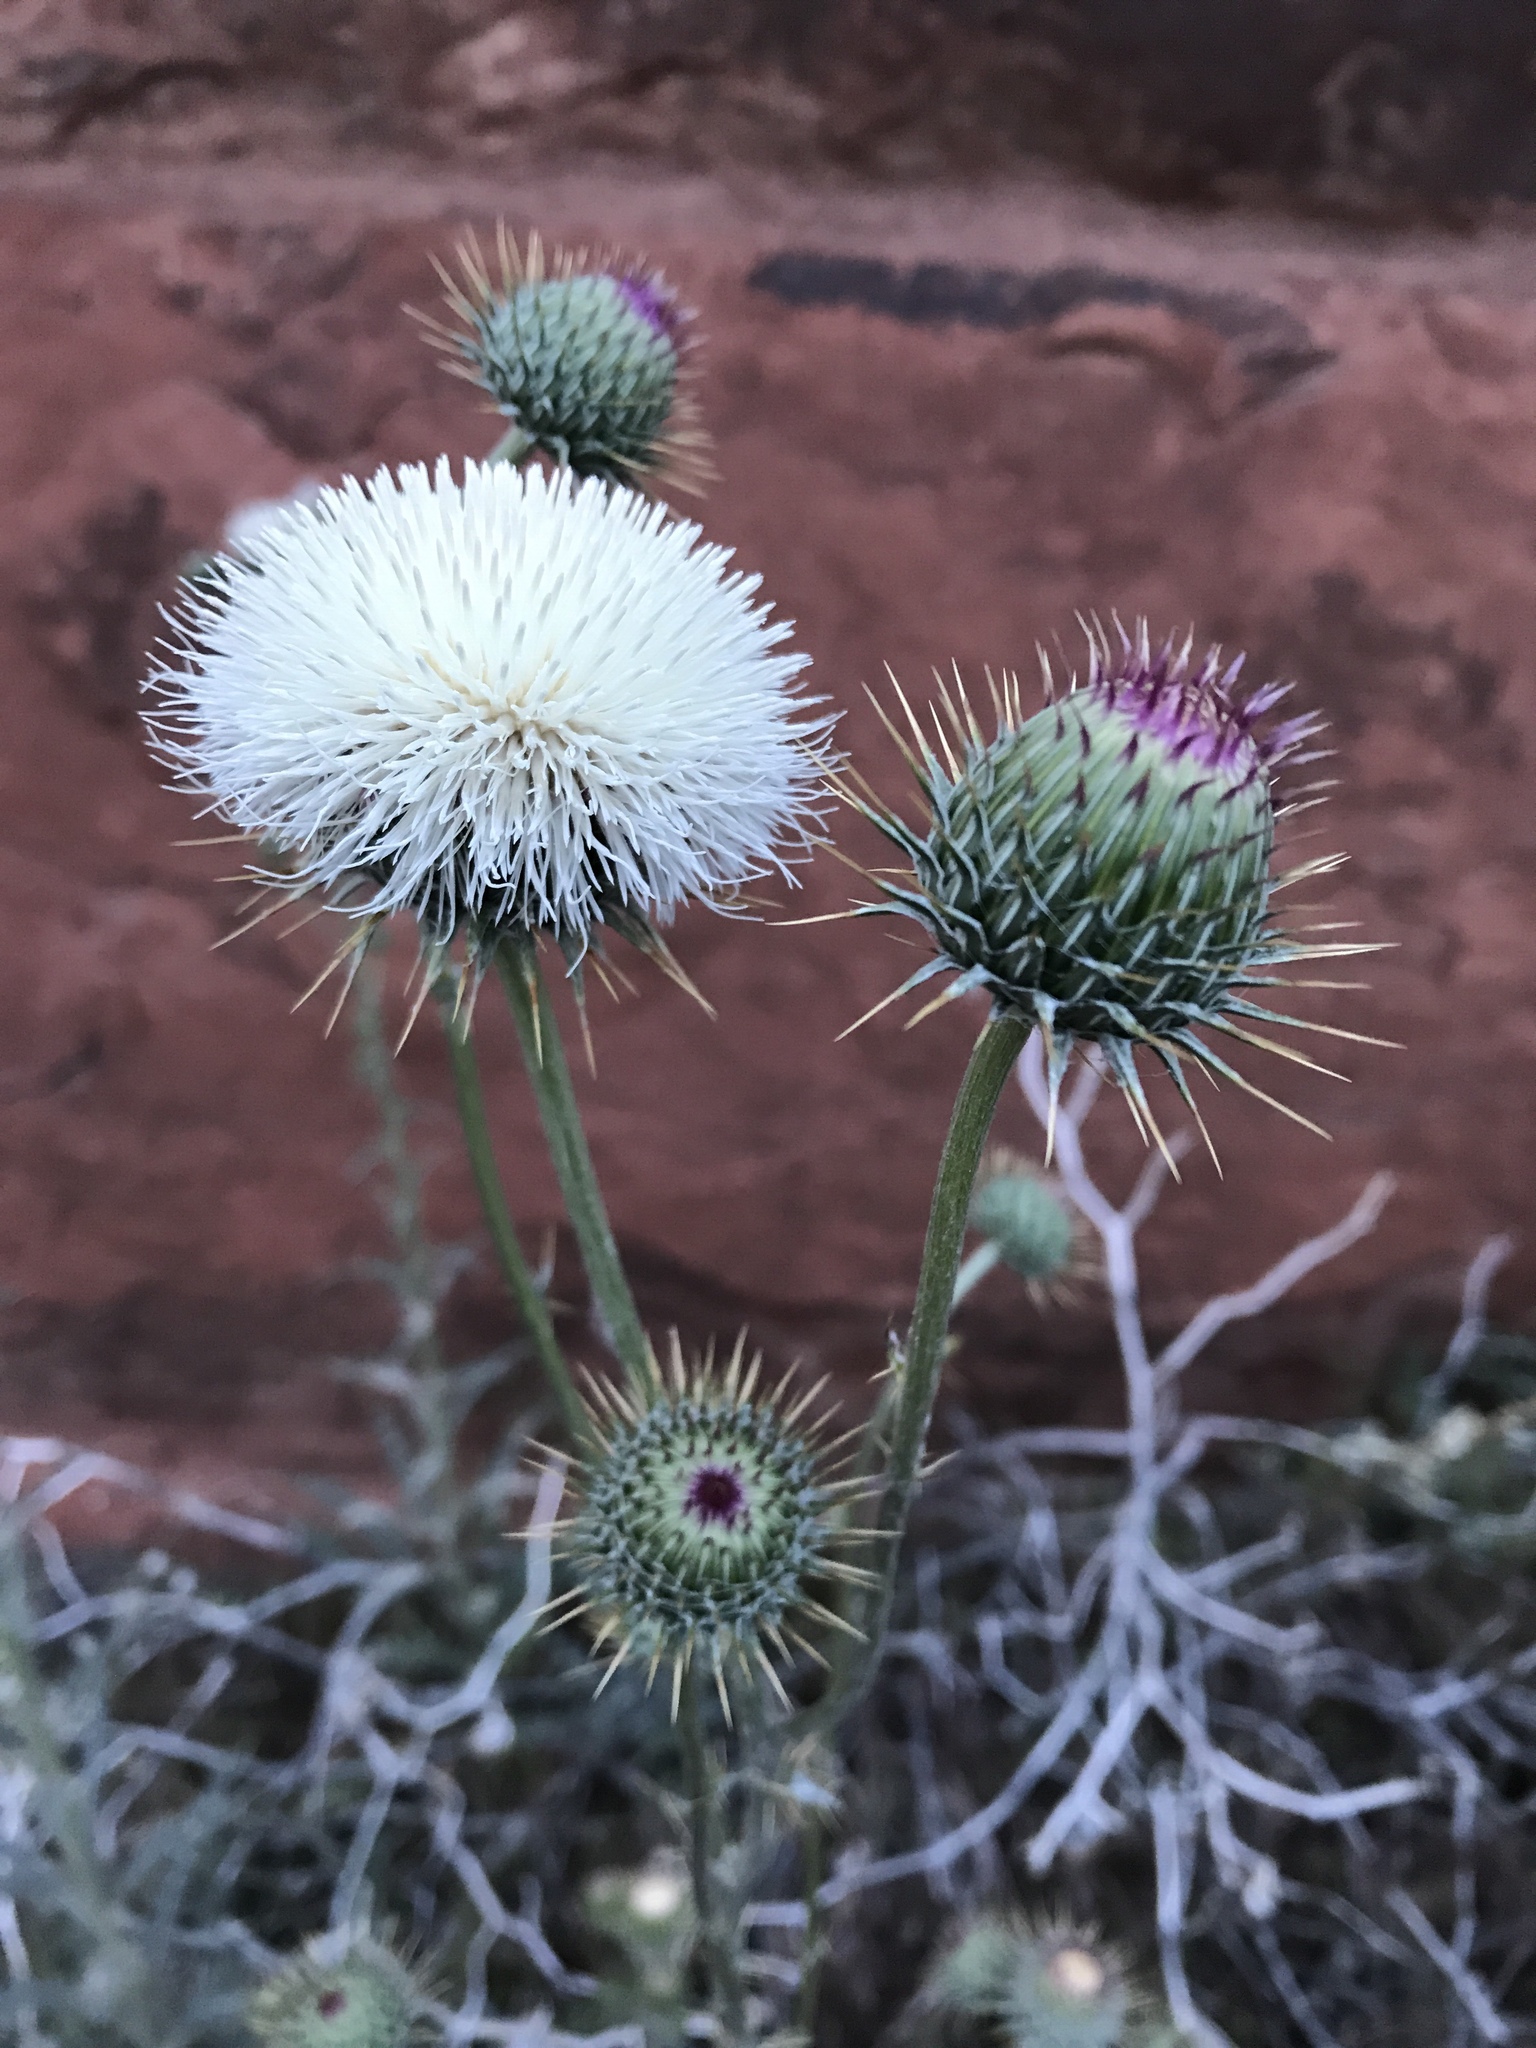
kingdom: Plantae
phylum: Tracheophyta
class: Magnoliopsida
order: Asterales
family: Asteraceae
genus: Cirsium
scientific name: Cirsium neomexicanum
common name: New mexico thistle
